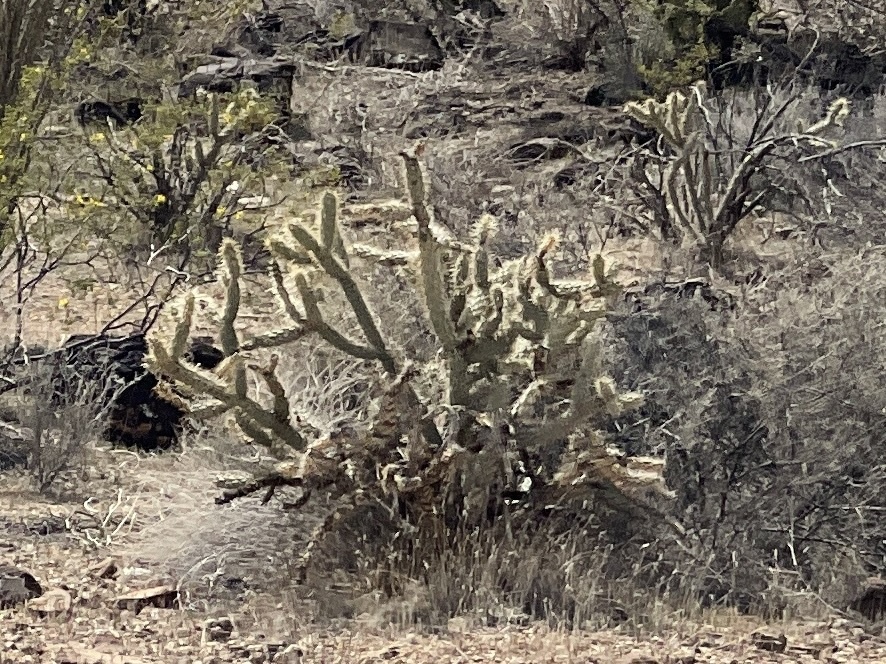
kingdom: Plantae
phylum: Tracheophyta
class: Magnoliopsida
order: Caryophyllales
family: Cactaceae
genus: Cylindropuntia
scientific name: Cylindropuntia acanthocarpa
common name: Buckhorn cholla
